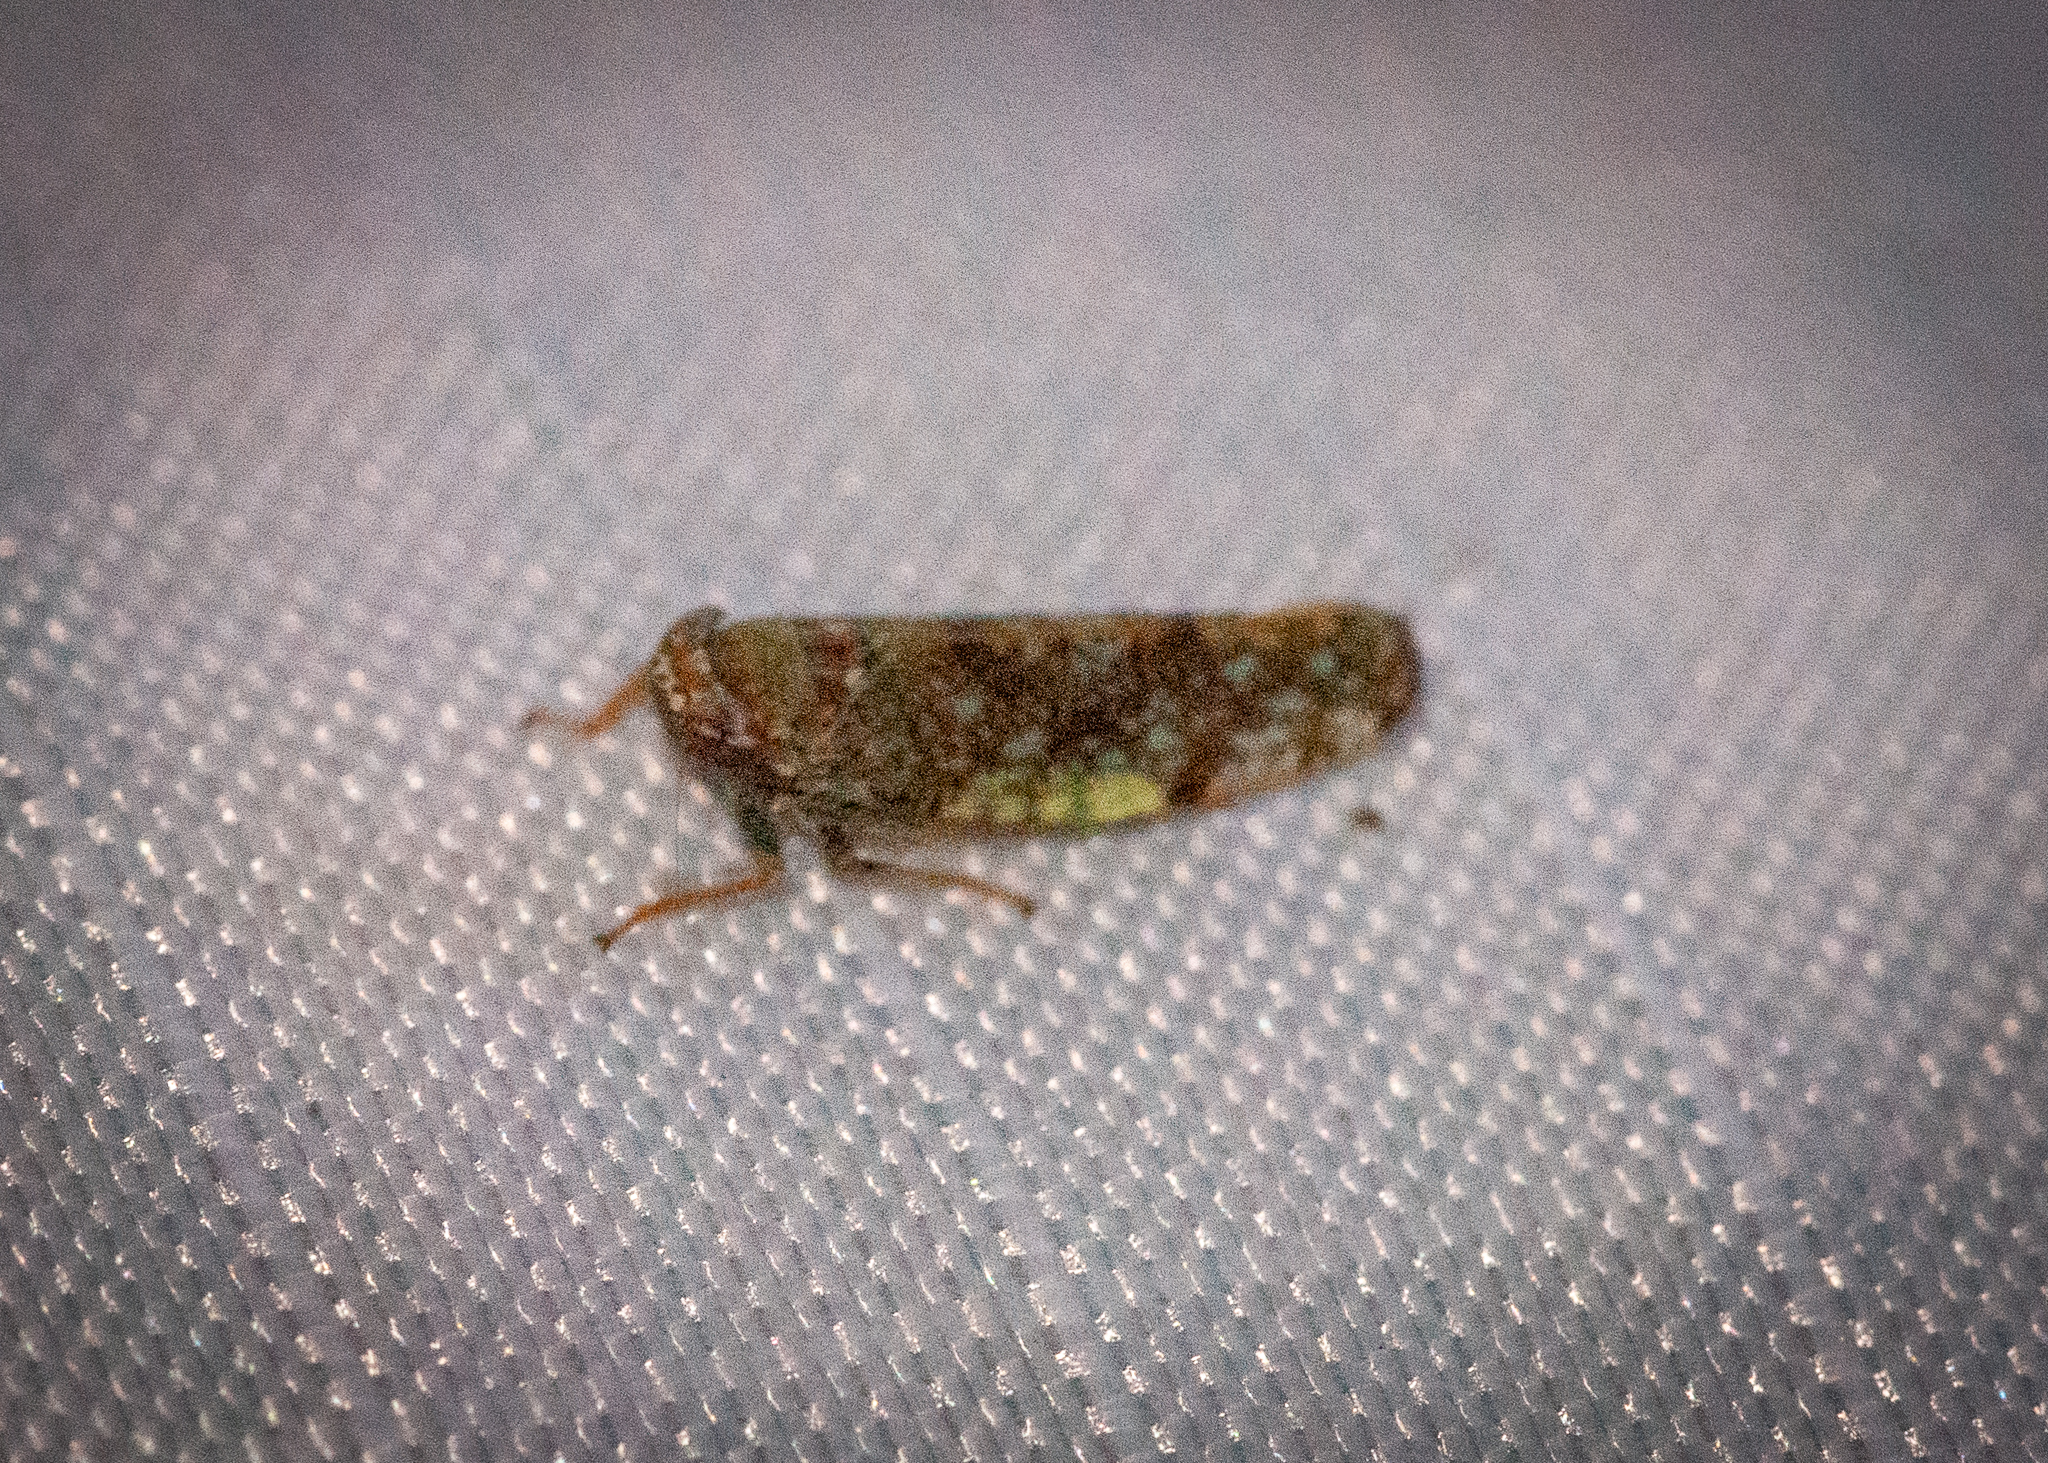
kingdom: Animalia
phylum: Arthropoda
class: Insecta
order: Hemiptera
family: Cicadellidae
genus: Orientus
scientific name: Orientus ishidae
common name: Japanese leafhopper
